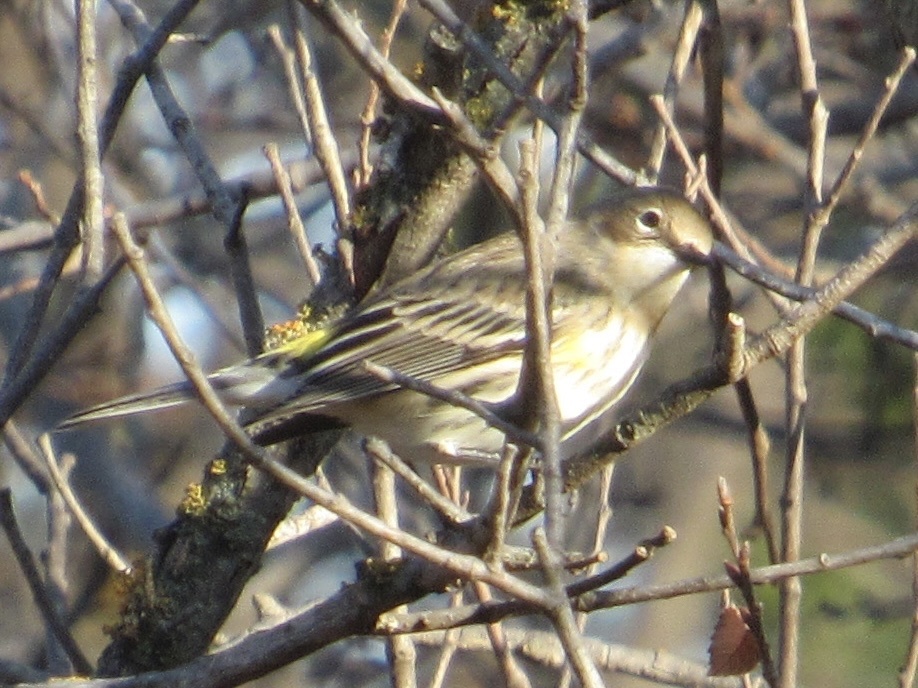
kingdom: Animalia
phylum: Chordata
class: Aves
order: Passeriformes
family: Parulidae
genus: Setophaga
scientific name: Setophaga coronata
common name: Myrtle warbler
